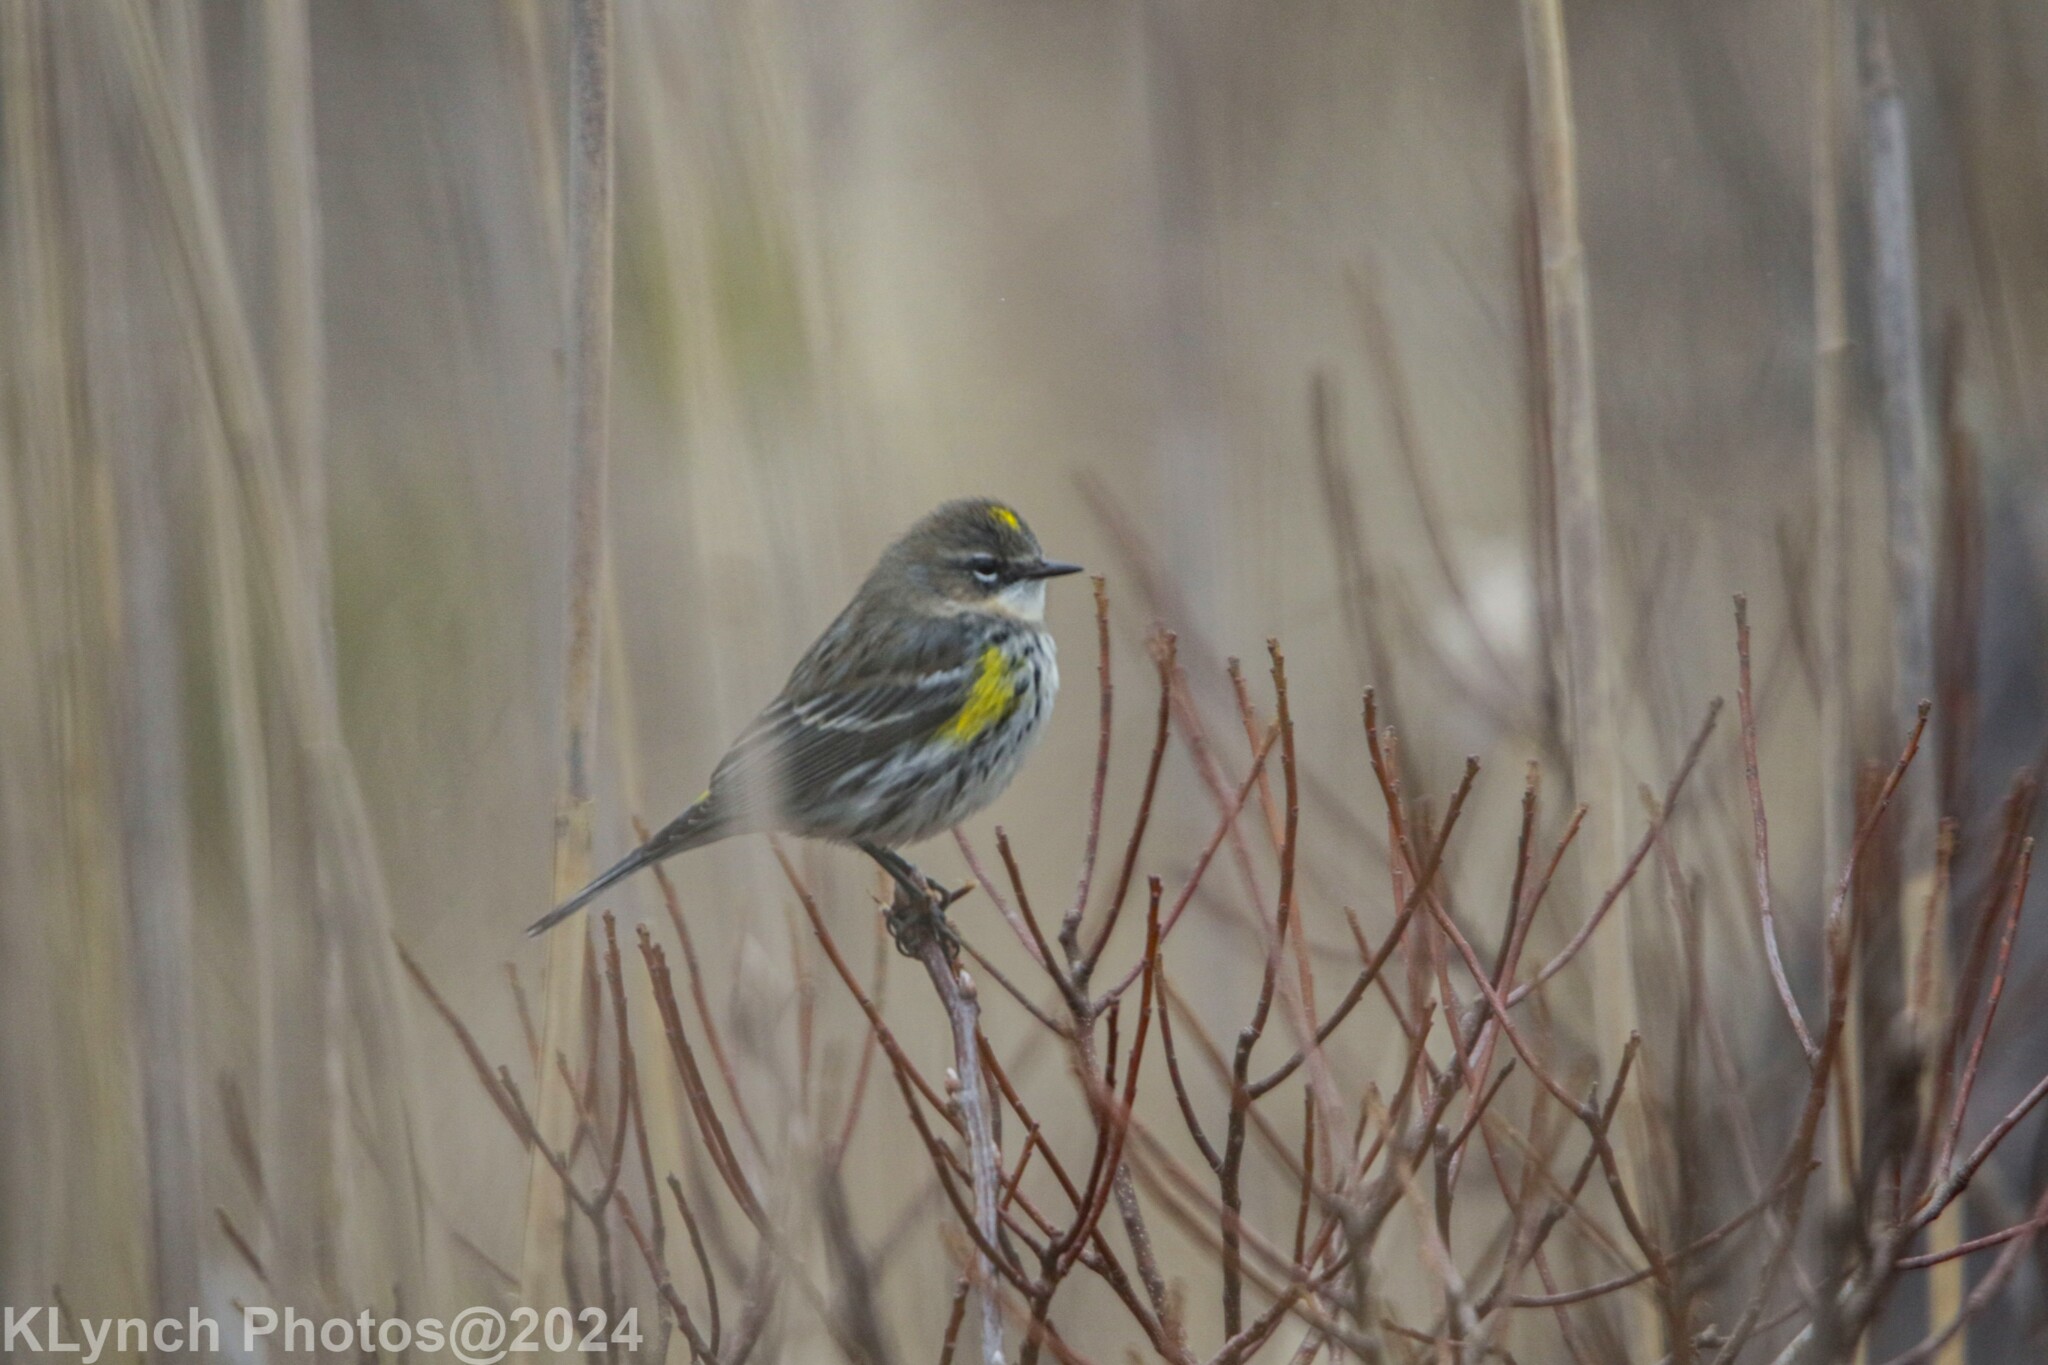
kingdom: Animalia
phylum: Chordata
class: Aves
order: Passeriformes
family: Parulidae
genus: Setophaga
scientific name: Setophaga coronata
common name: Myrtle warbler
